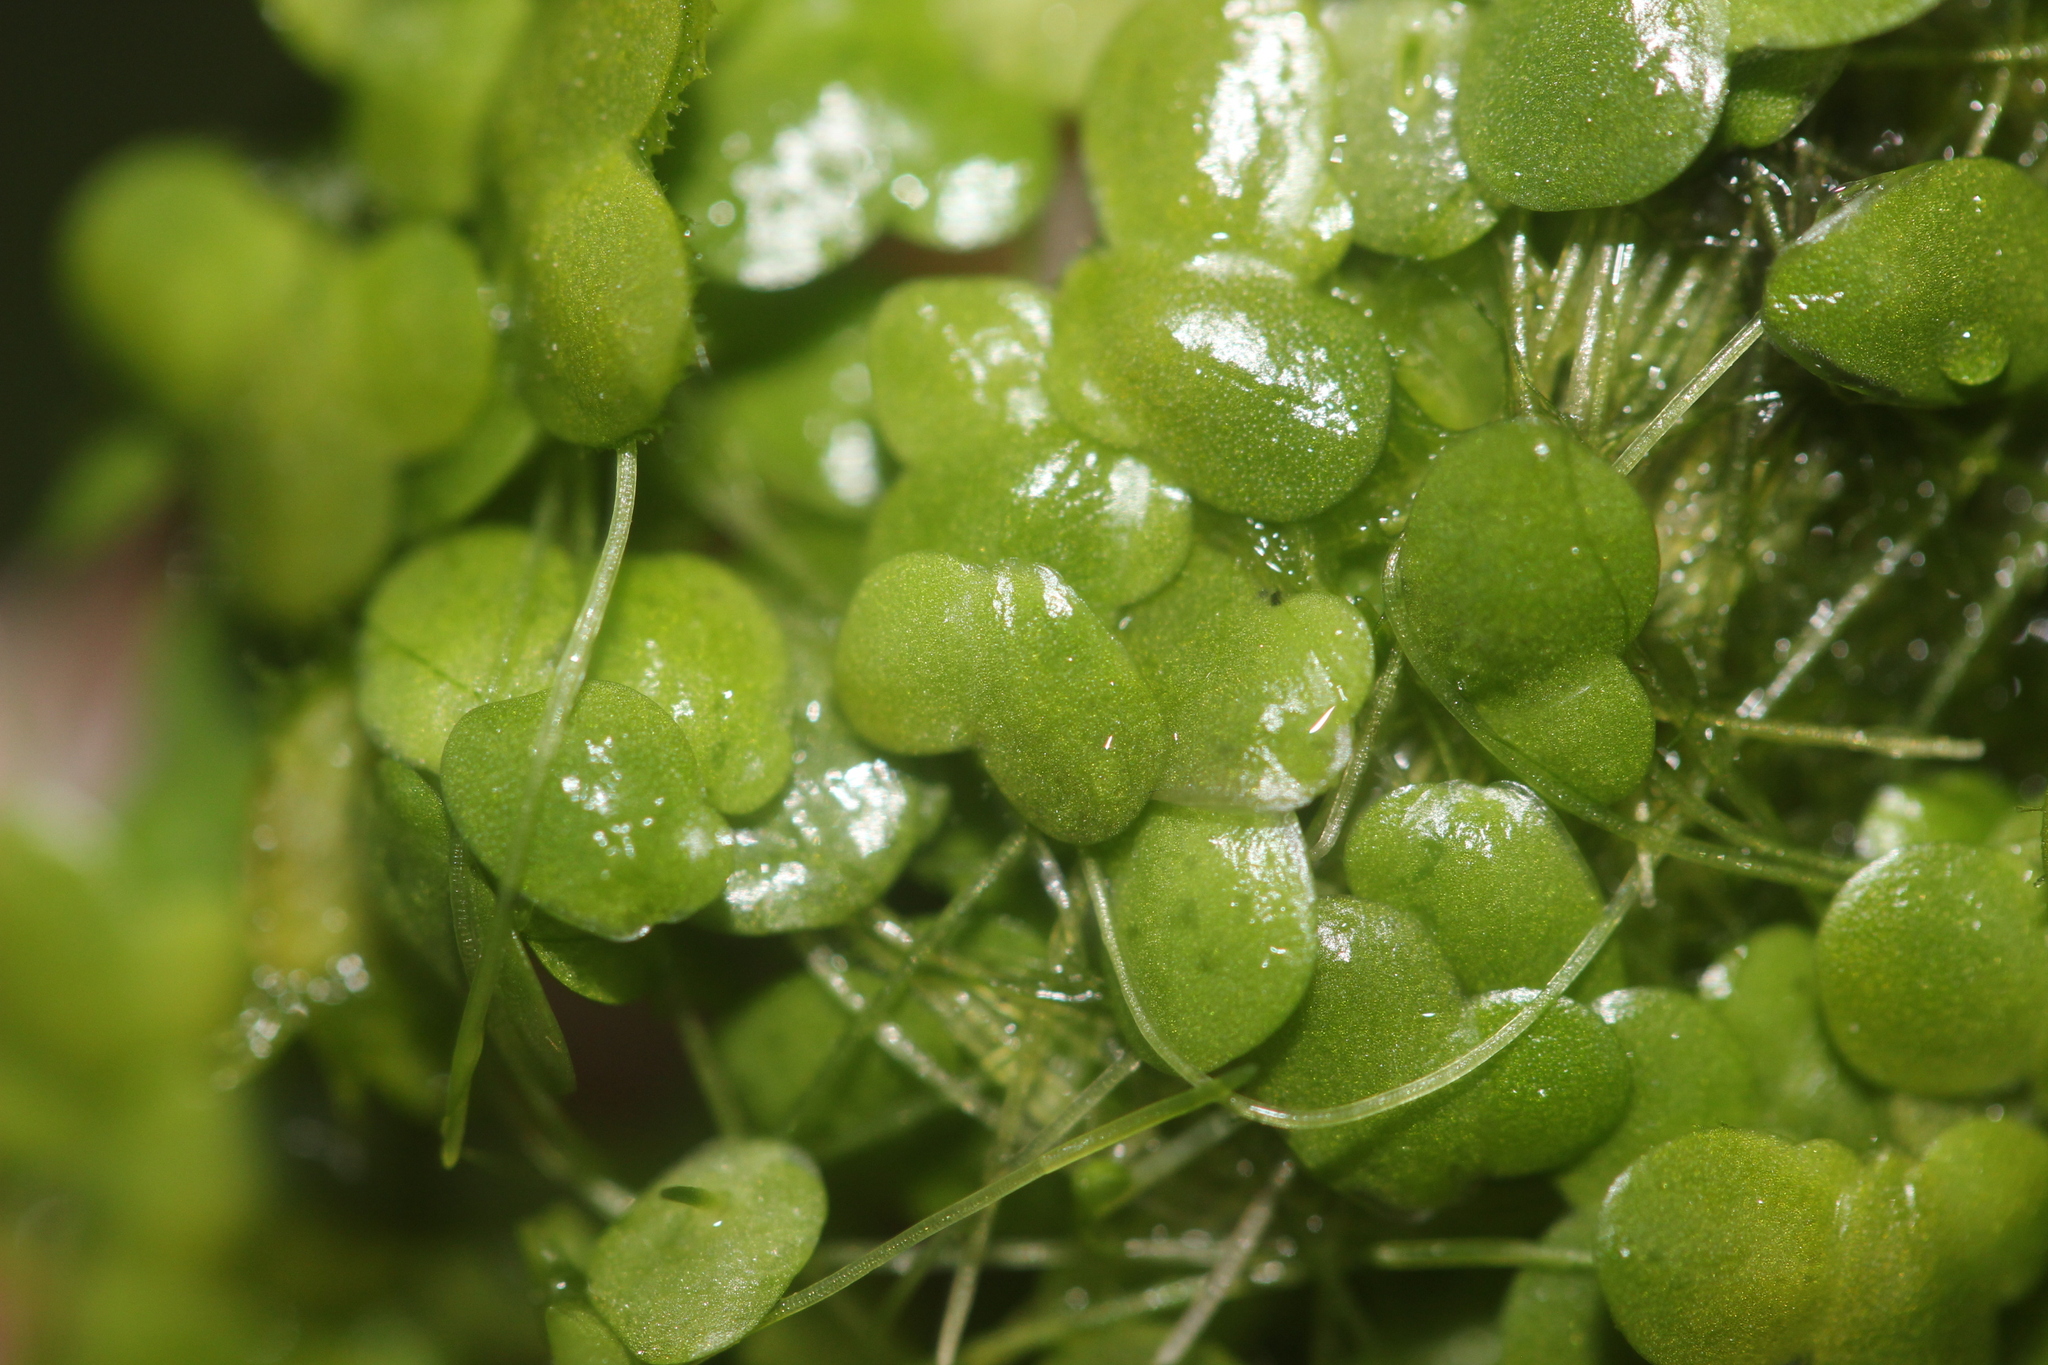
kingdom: Plantae
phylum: Tracheophyta
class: Liliopsida
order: Alismatales
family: Araceae
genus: Lemna
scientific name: Lemna disperma
